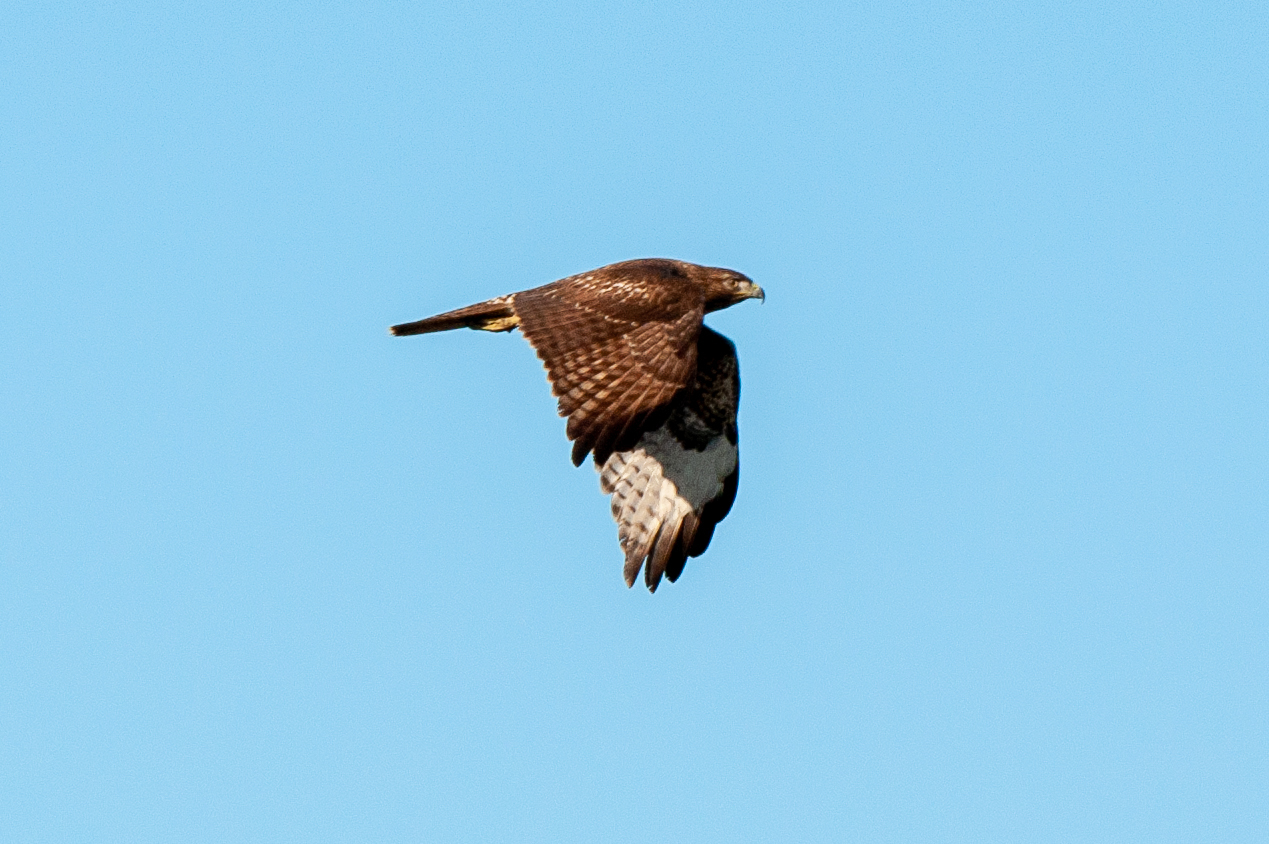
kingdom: Animalia
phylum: Chordata
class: Aves
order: Accipitriformes
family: Accipitridae
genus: Buteo
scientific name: Buteo jamaicensis
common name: Red-tailed hawk
